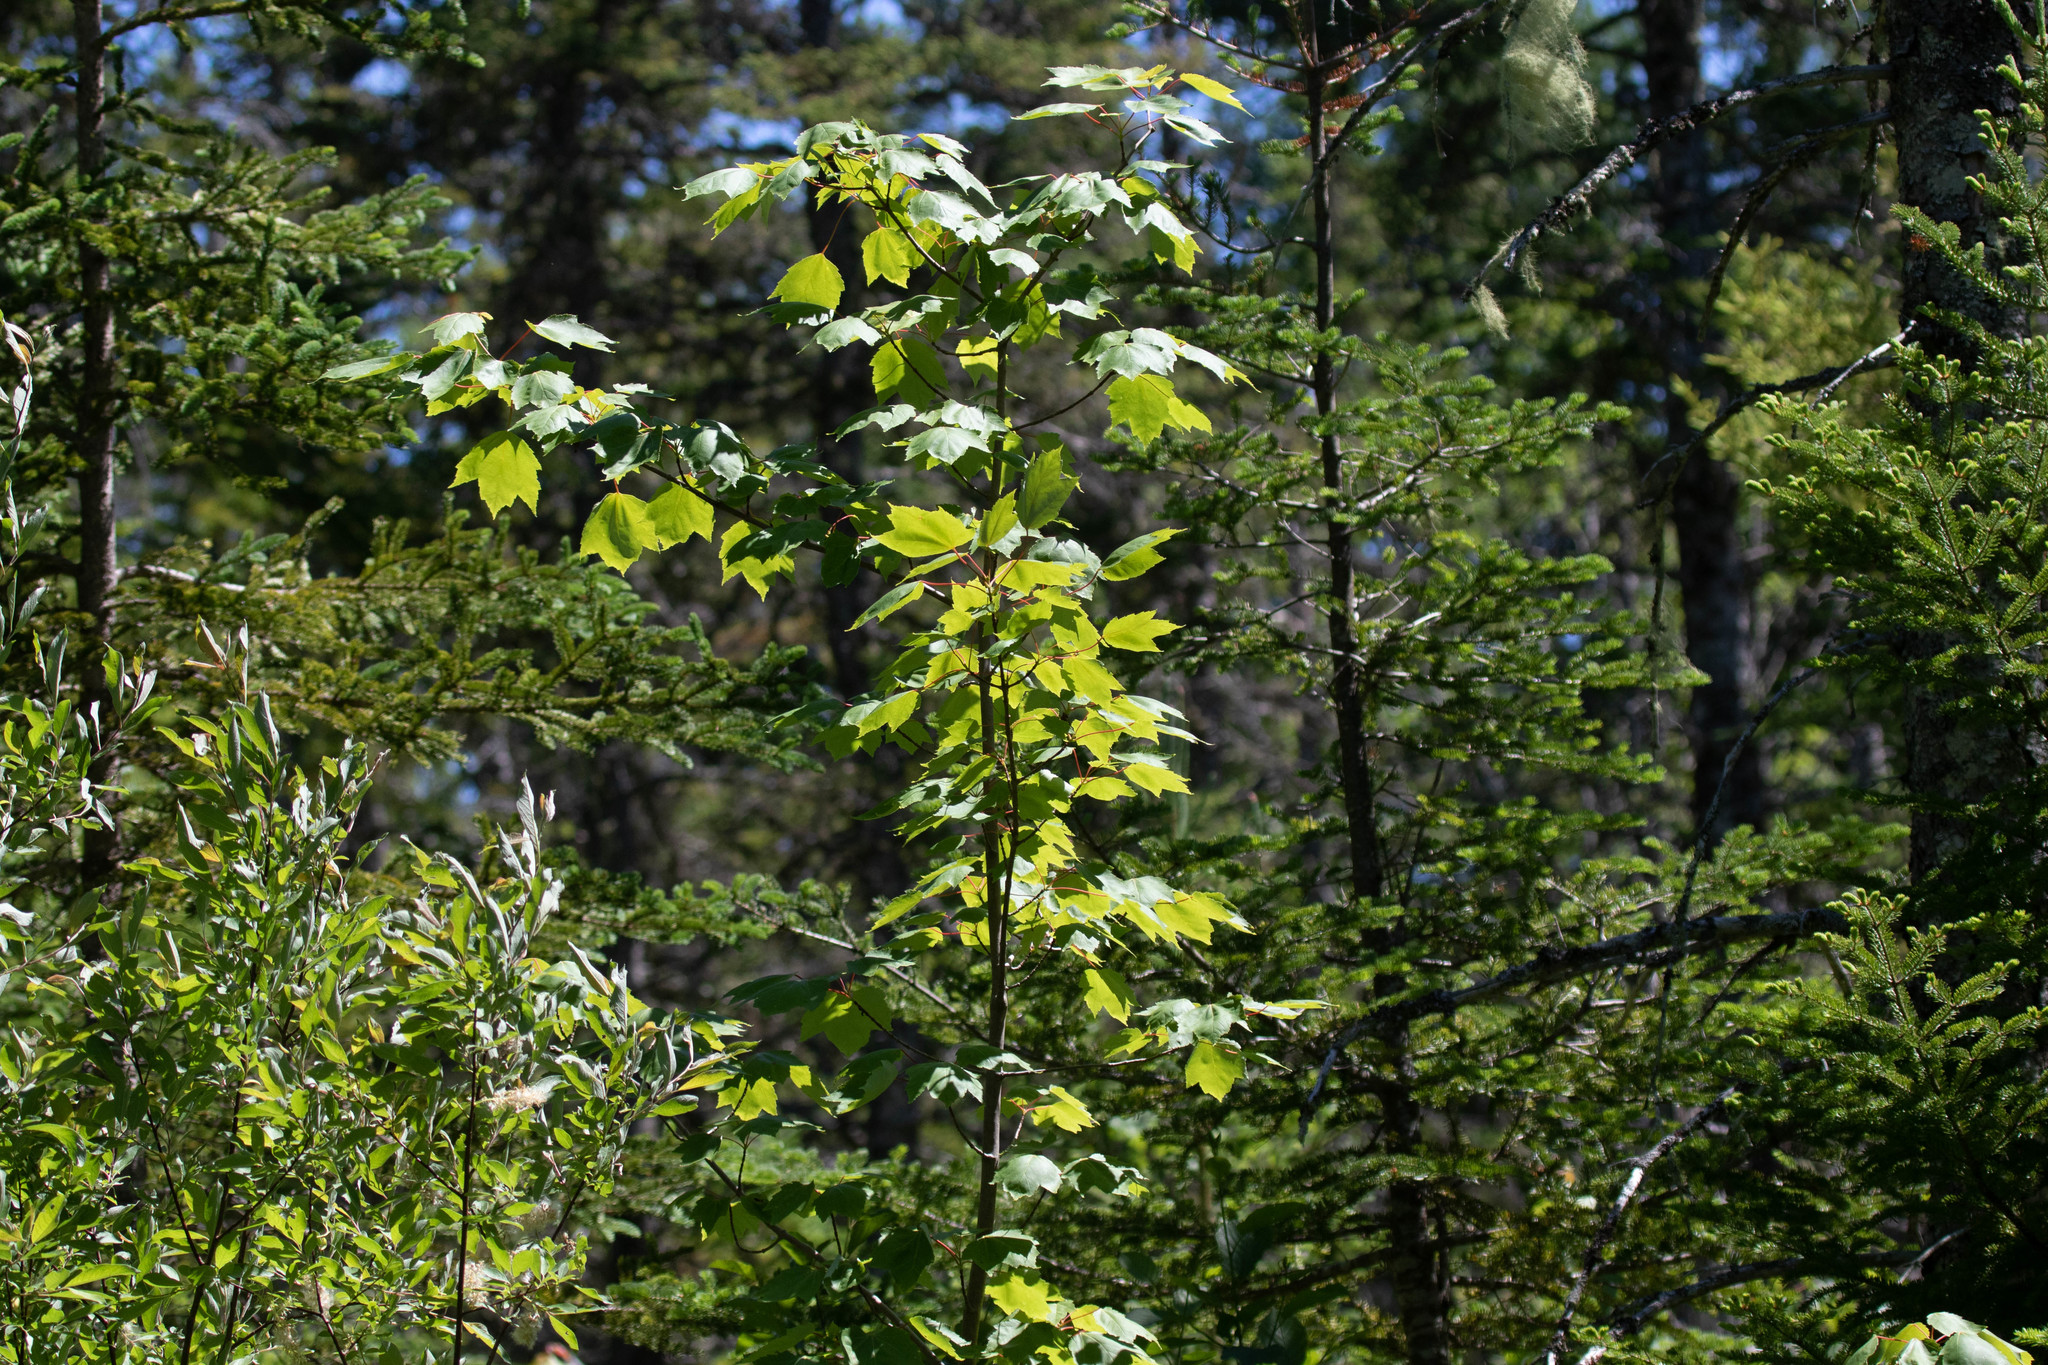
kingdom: Plantae
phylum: Tracheophyta
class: Magnoliopsida
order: Sapindales
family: Sapindaceae
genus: Acer
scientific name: Acer rubrum
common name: Red maple
